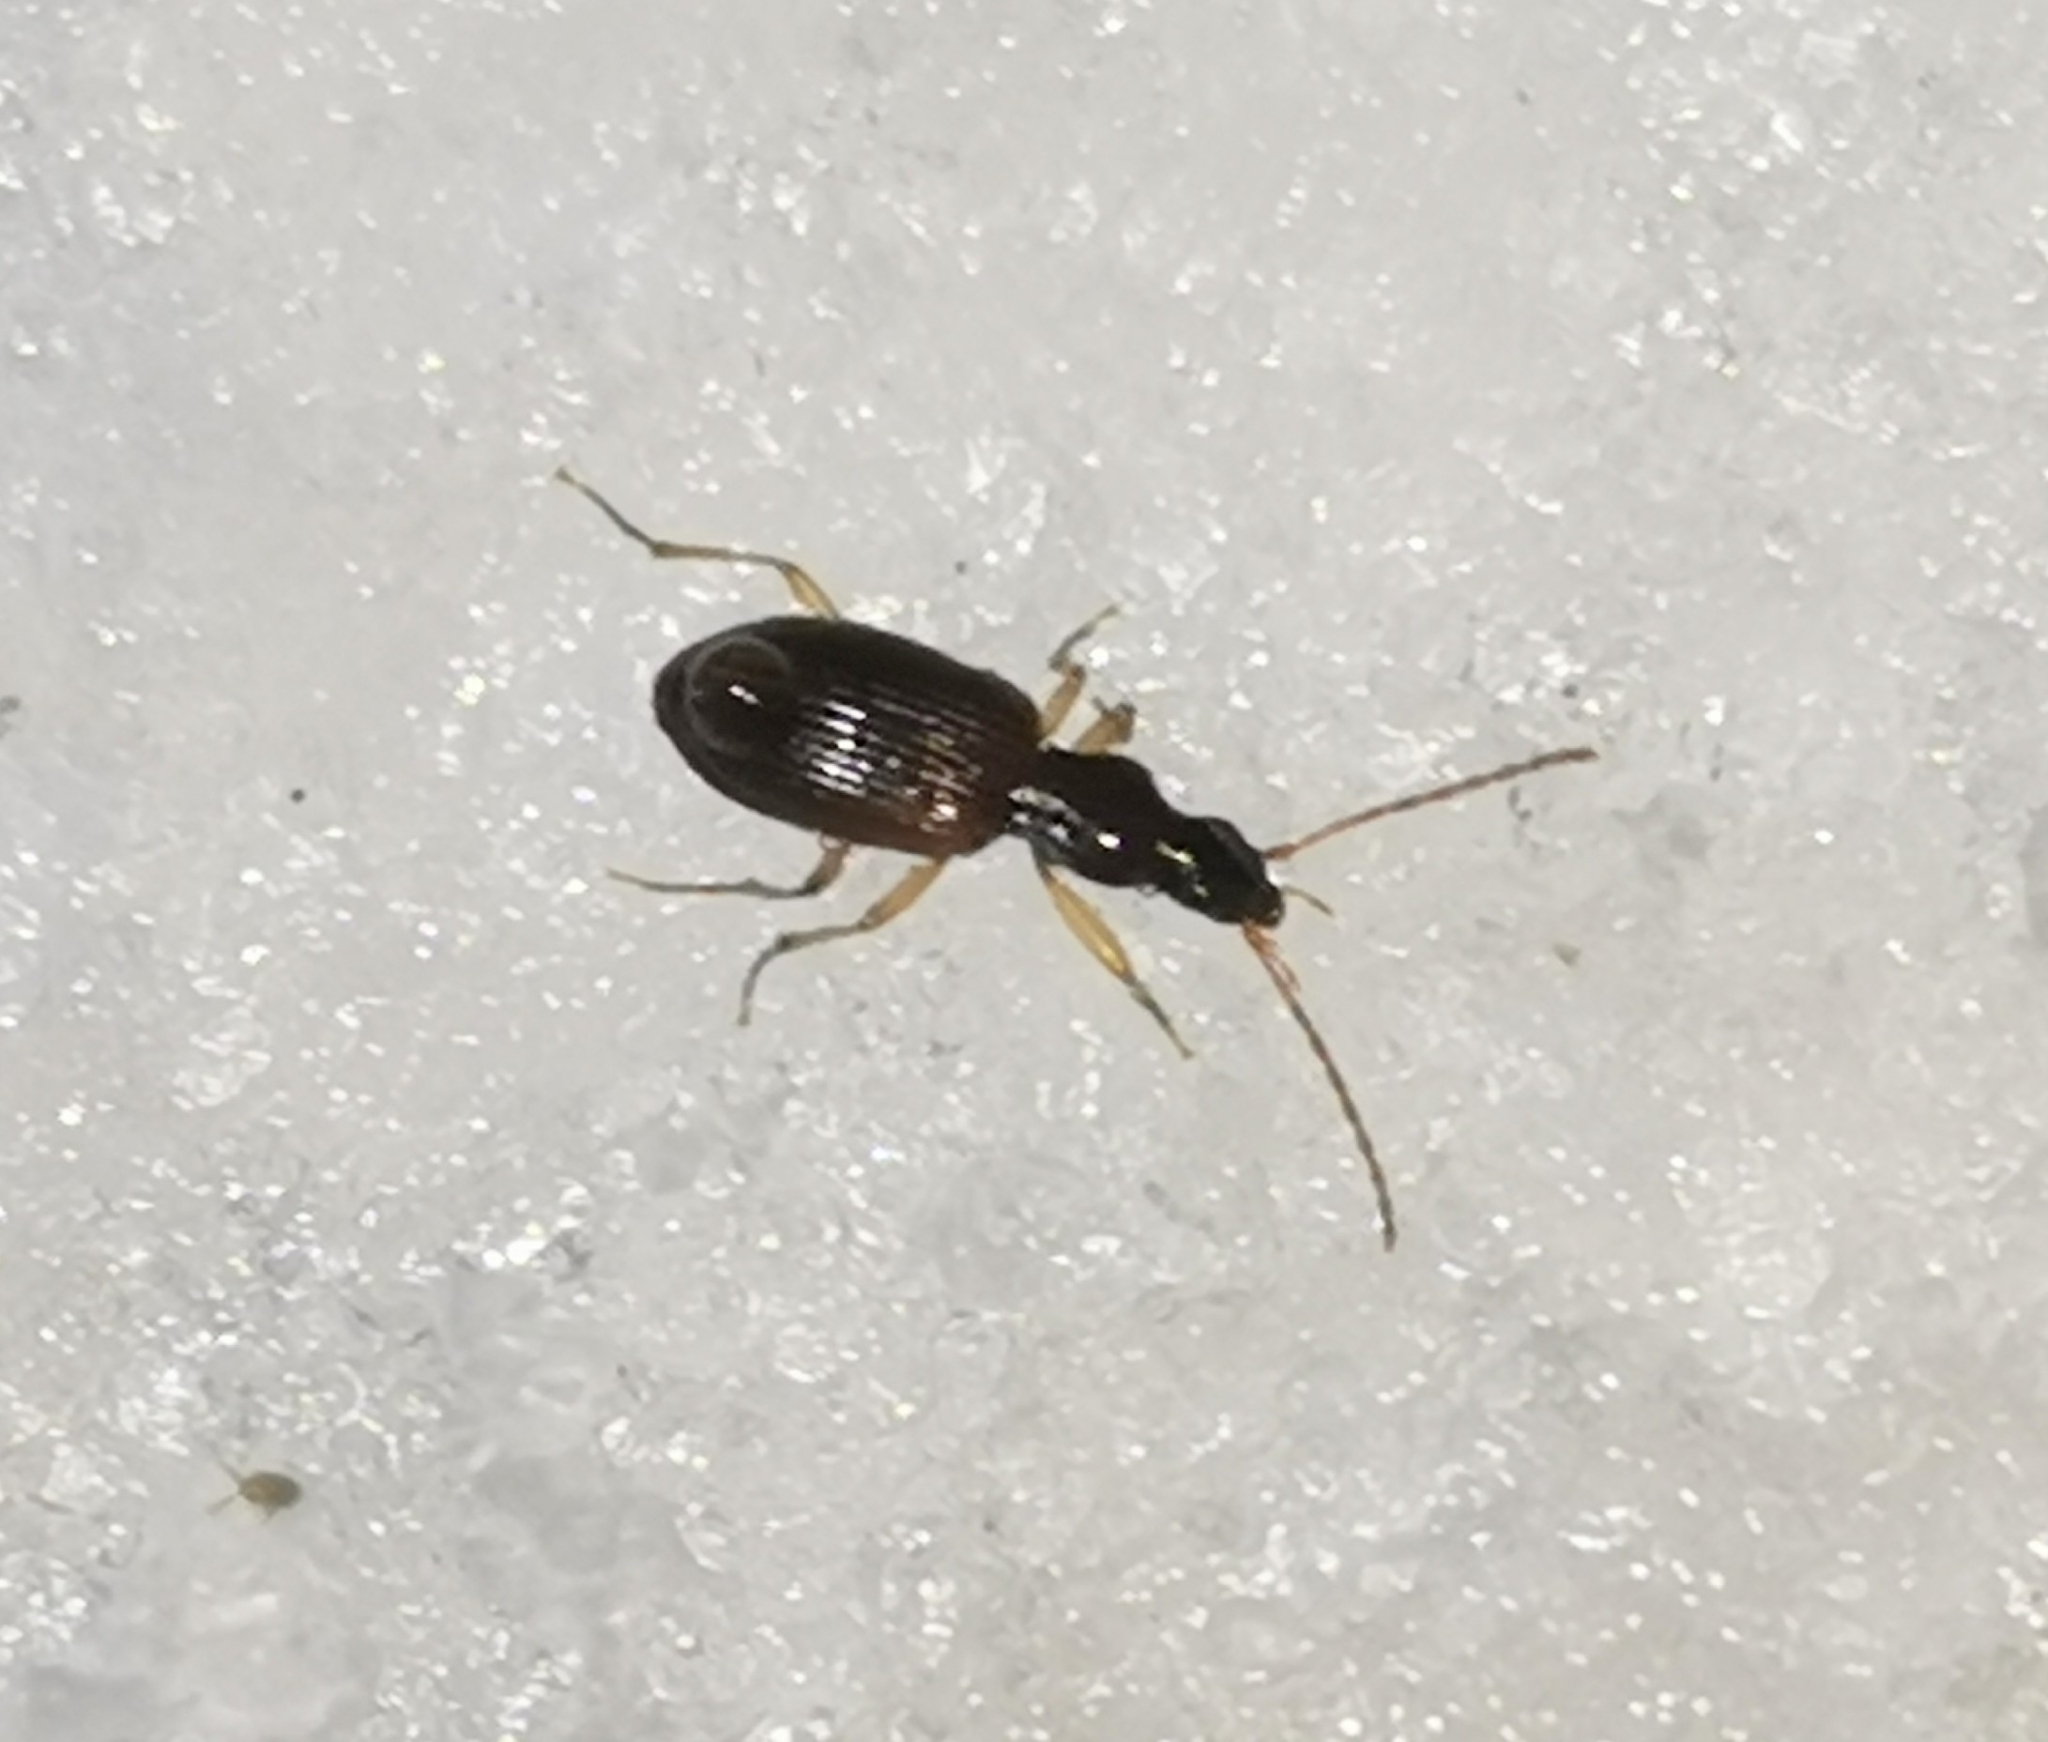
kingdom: Animalia
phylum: Arthropoda
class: Insecta
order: Coleoptera
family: Carabidae
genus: Oxypselaphus
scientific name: Oxypselaphus obscurus
